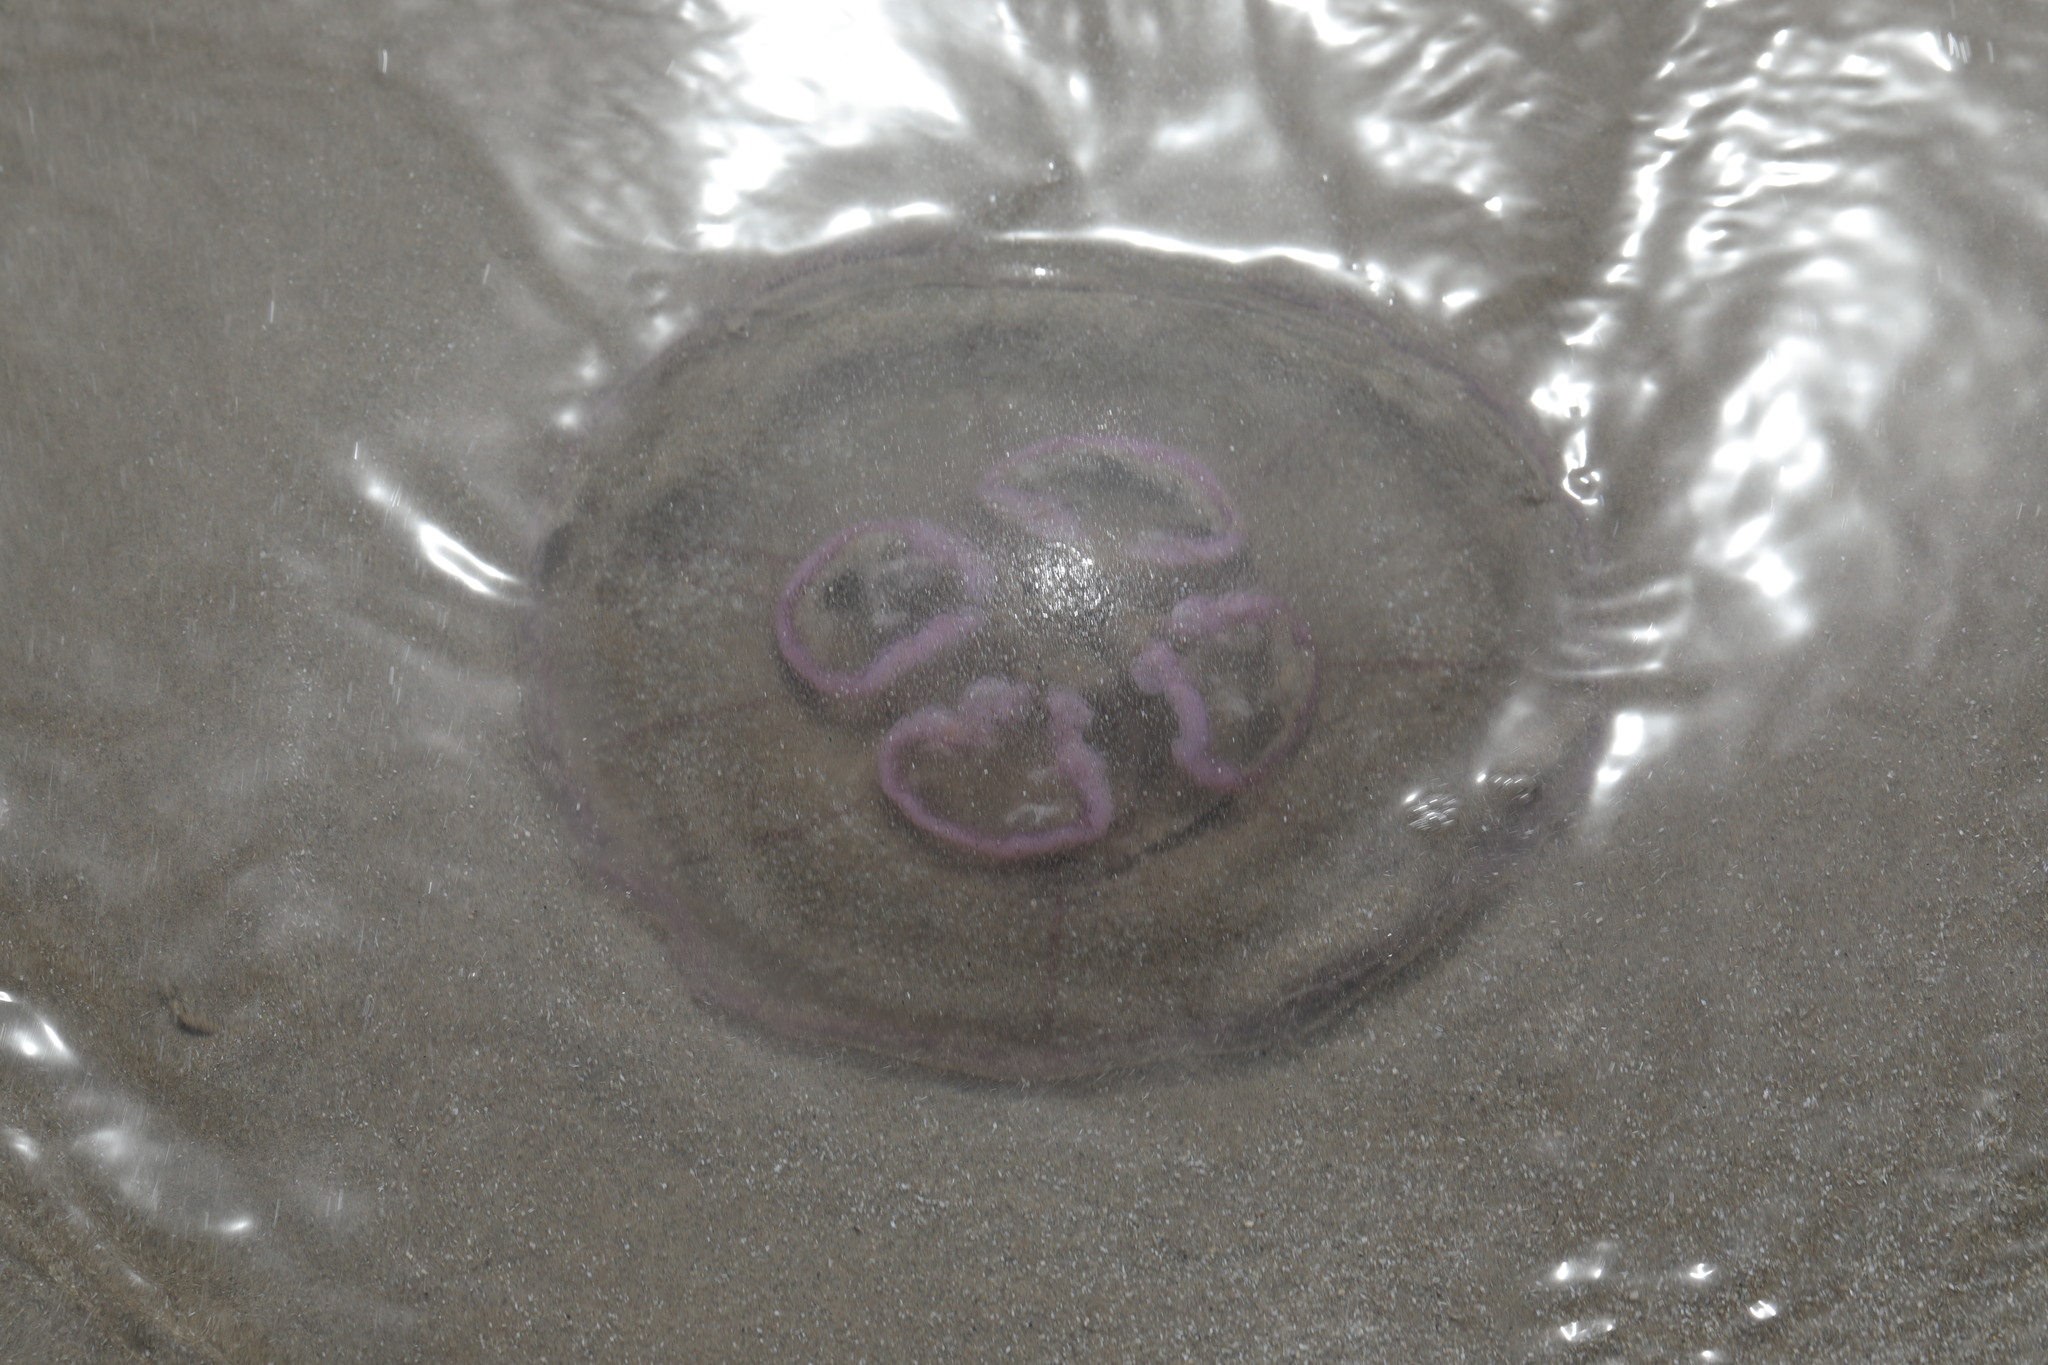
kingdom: Animalia
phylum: Cnidaria
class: Scyphozoa
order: Semaeostomeae
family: Ulmaridae
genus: Aurelia
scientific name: Aurelia aurita
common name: Moon jellyfish
